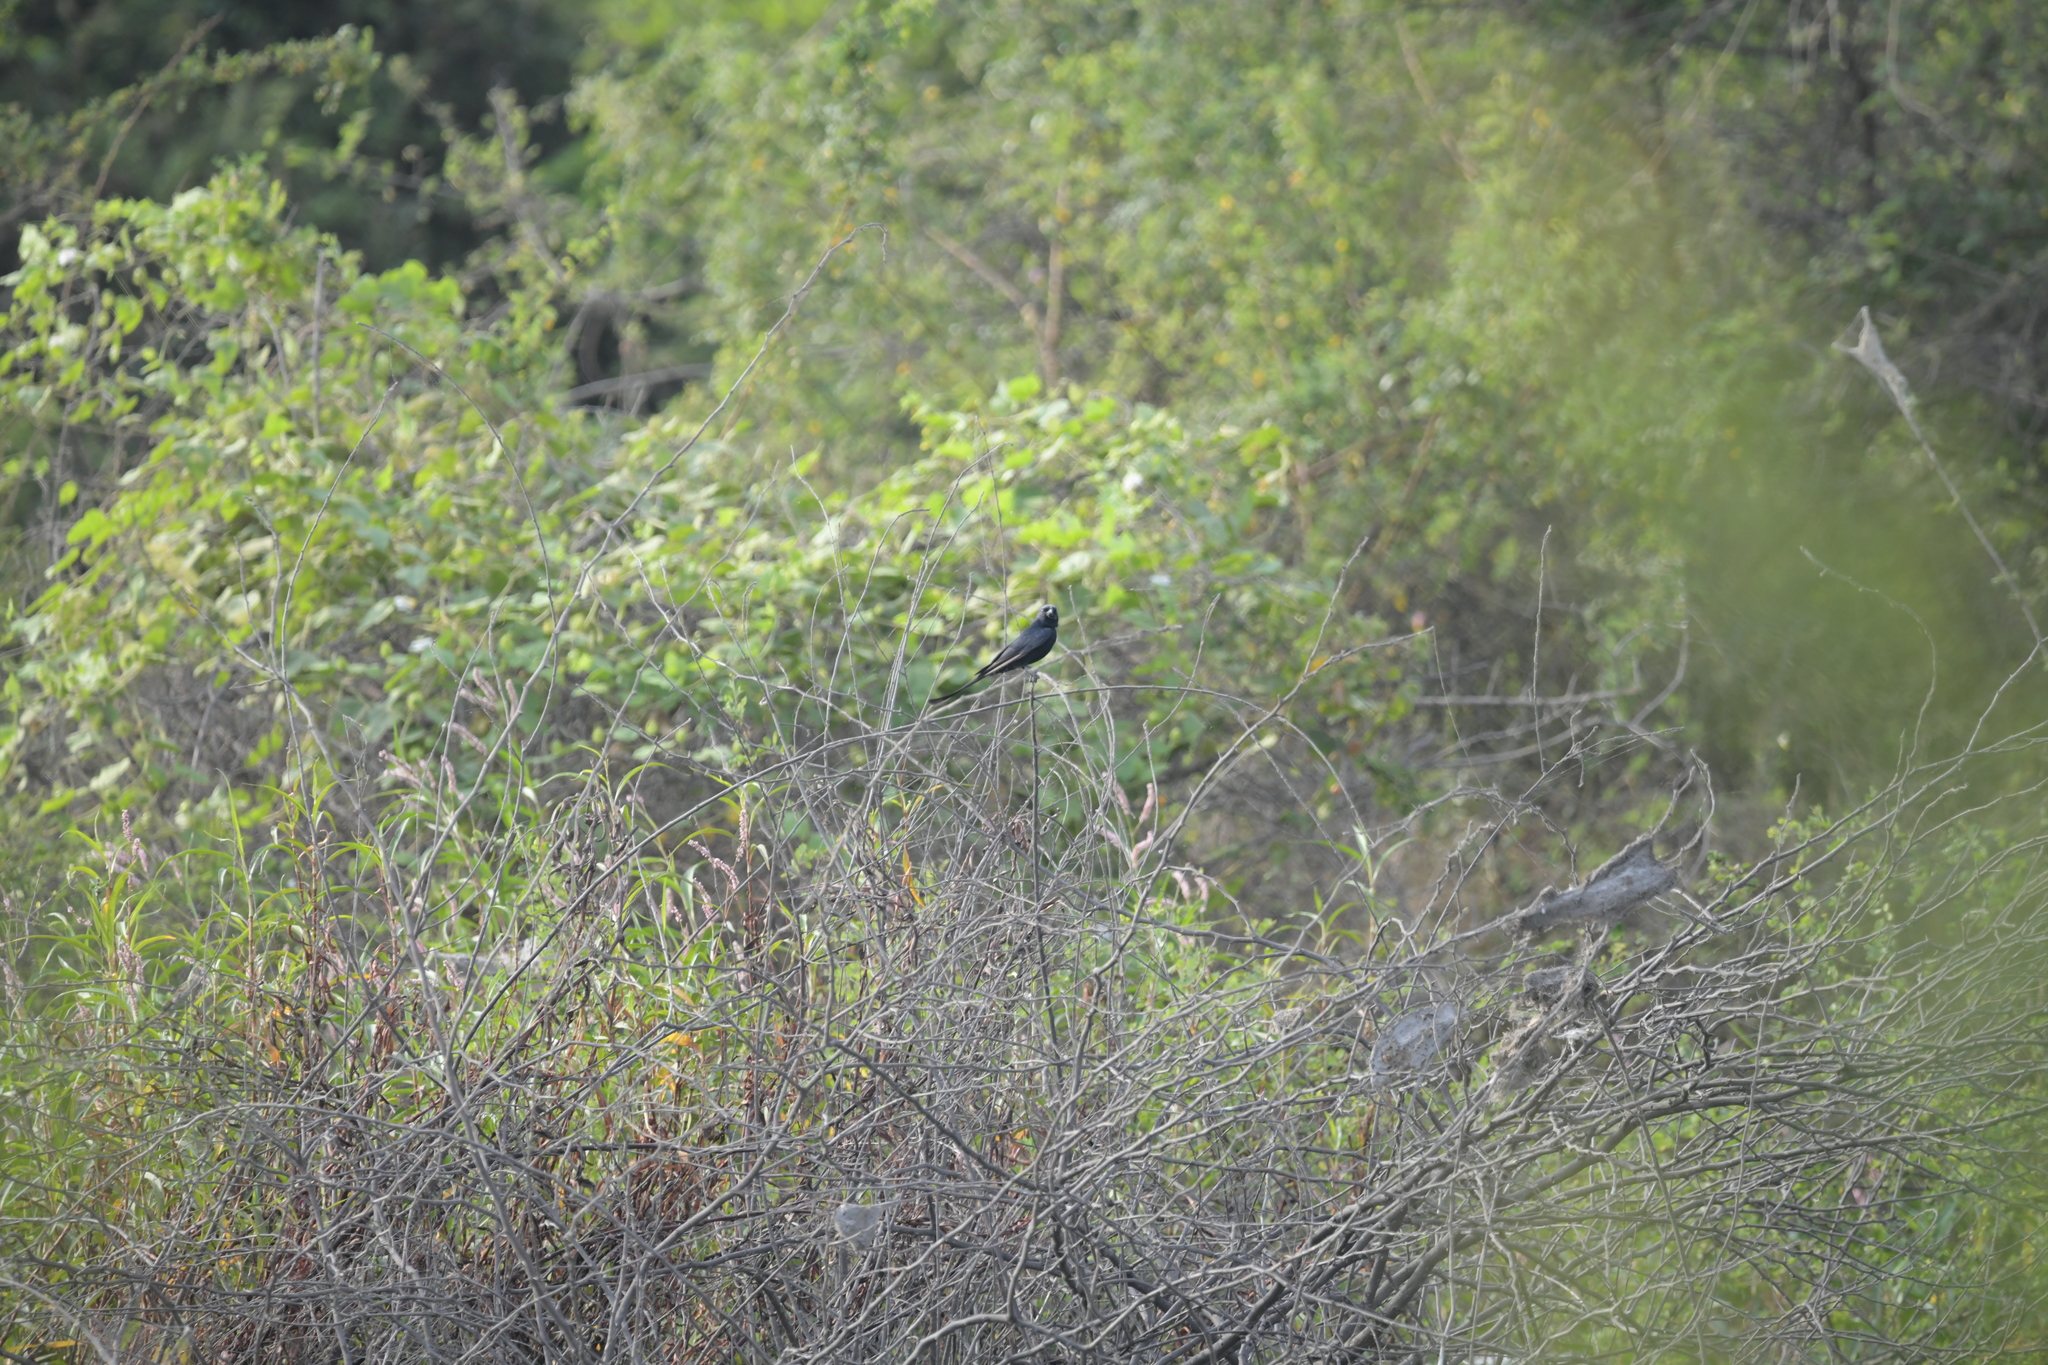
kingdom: Animalia
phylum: Chordata
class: Aves
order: Passeriformes
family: Dicruridae
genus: Dicrurus
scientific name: Dicrurus macrocercus
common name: Black drongo
